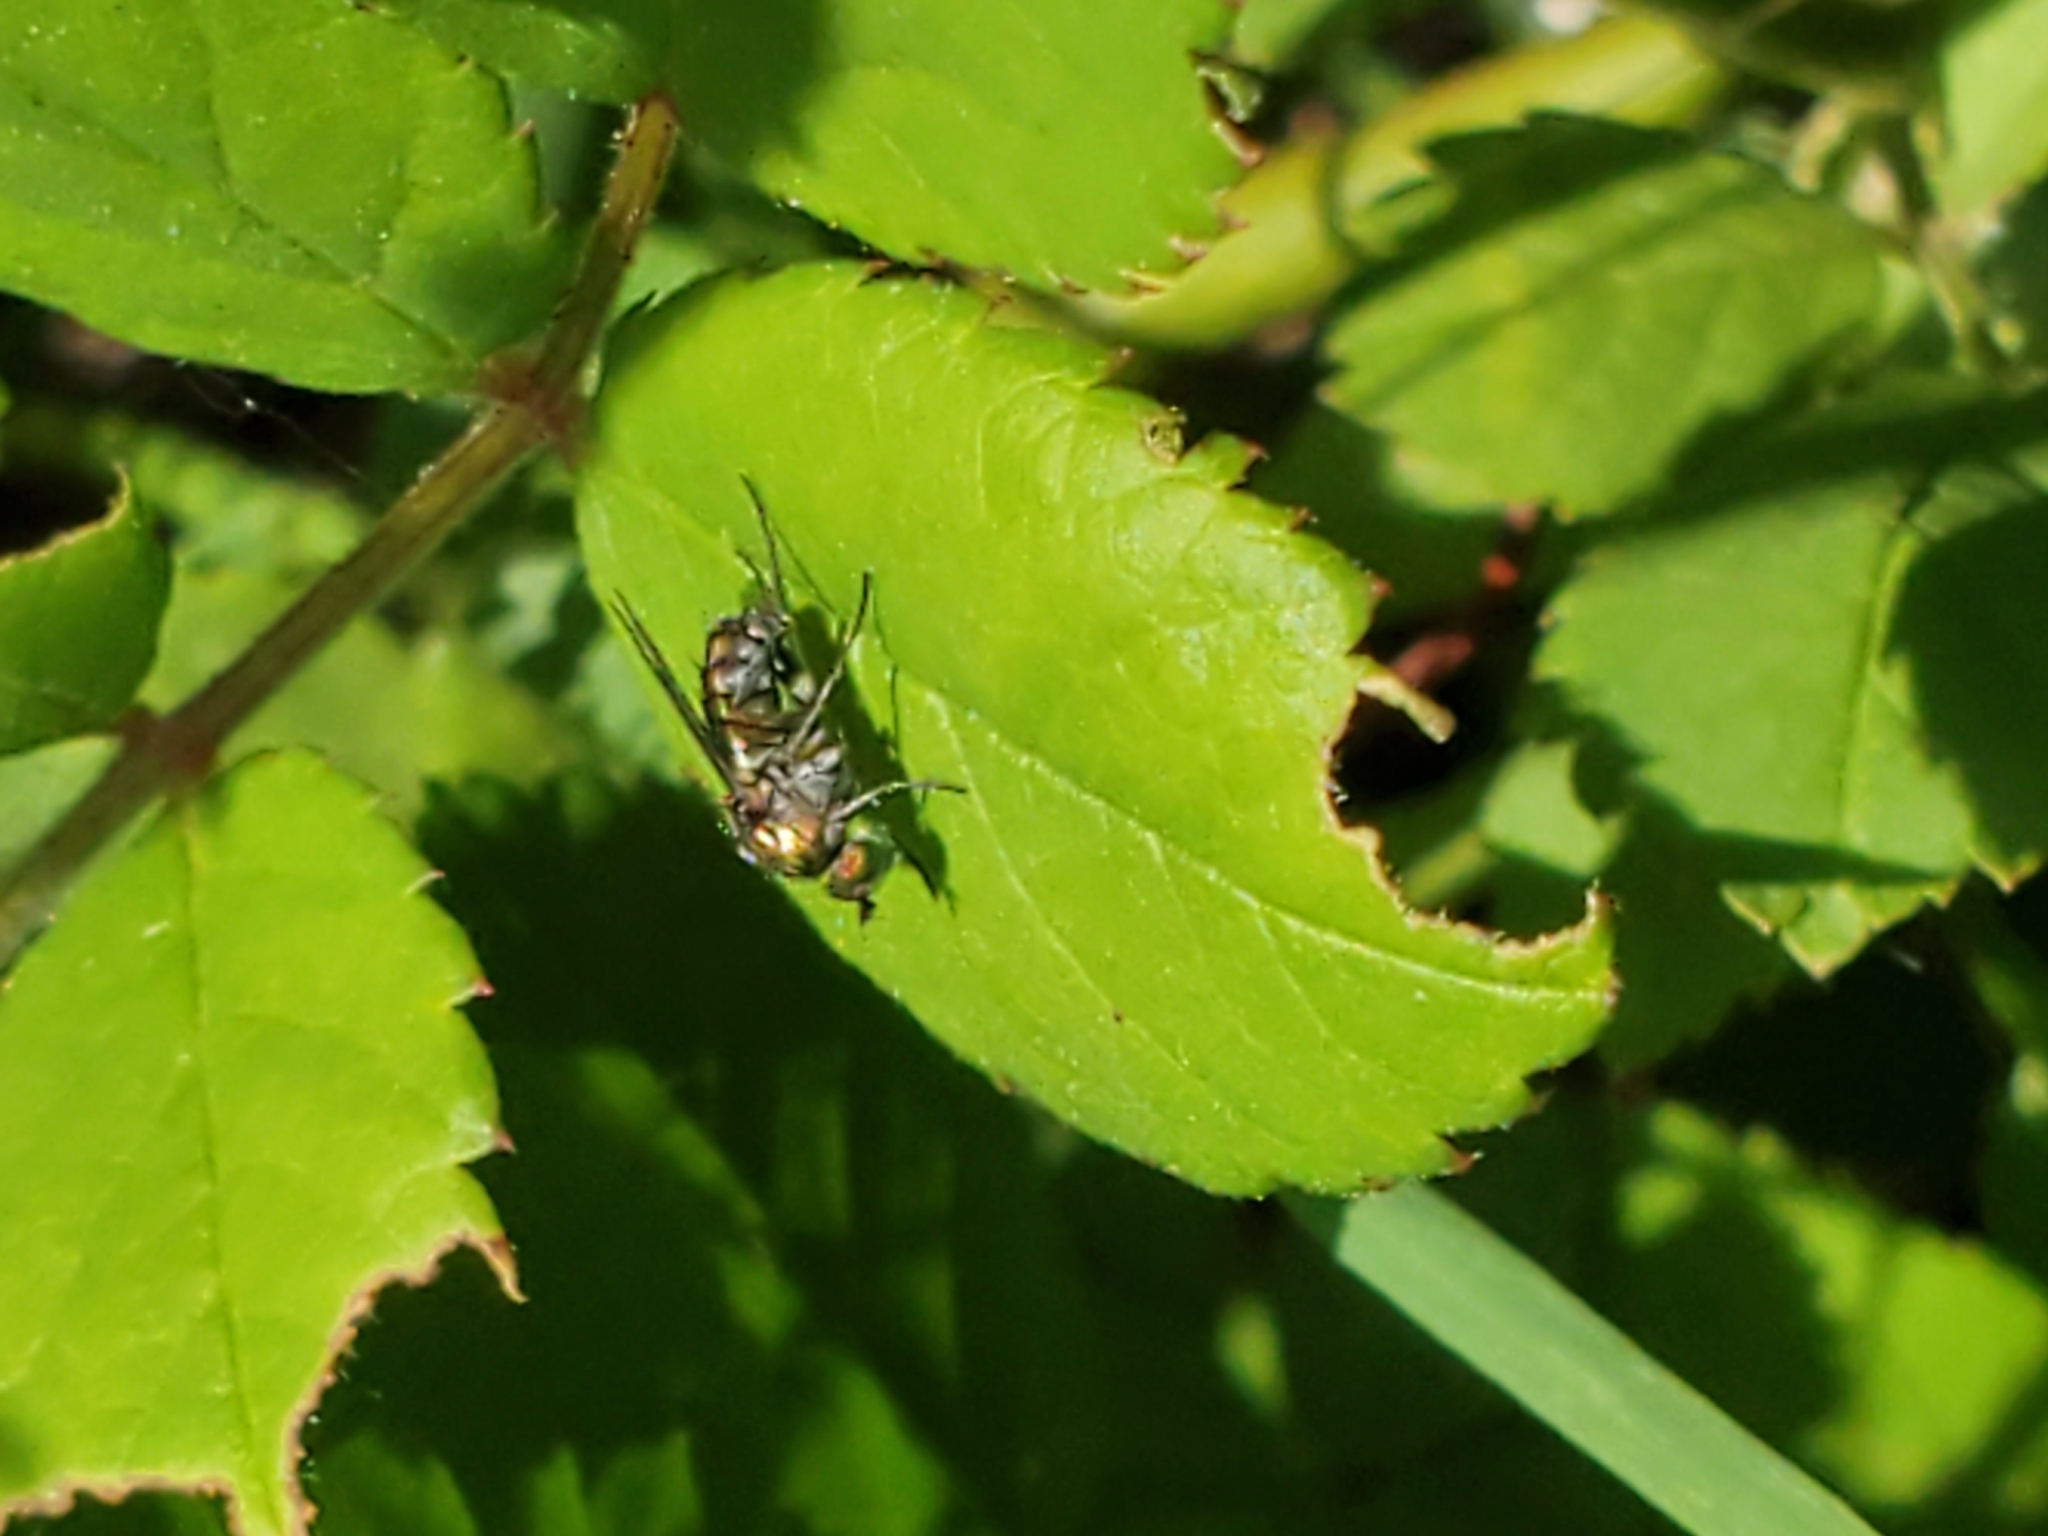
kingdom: Animalia
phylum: Arthropoda
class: Insecta
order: Diptera
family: Dolichopodidae
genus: Dolichopus
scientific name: Dolichopus
